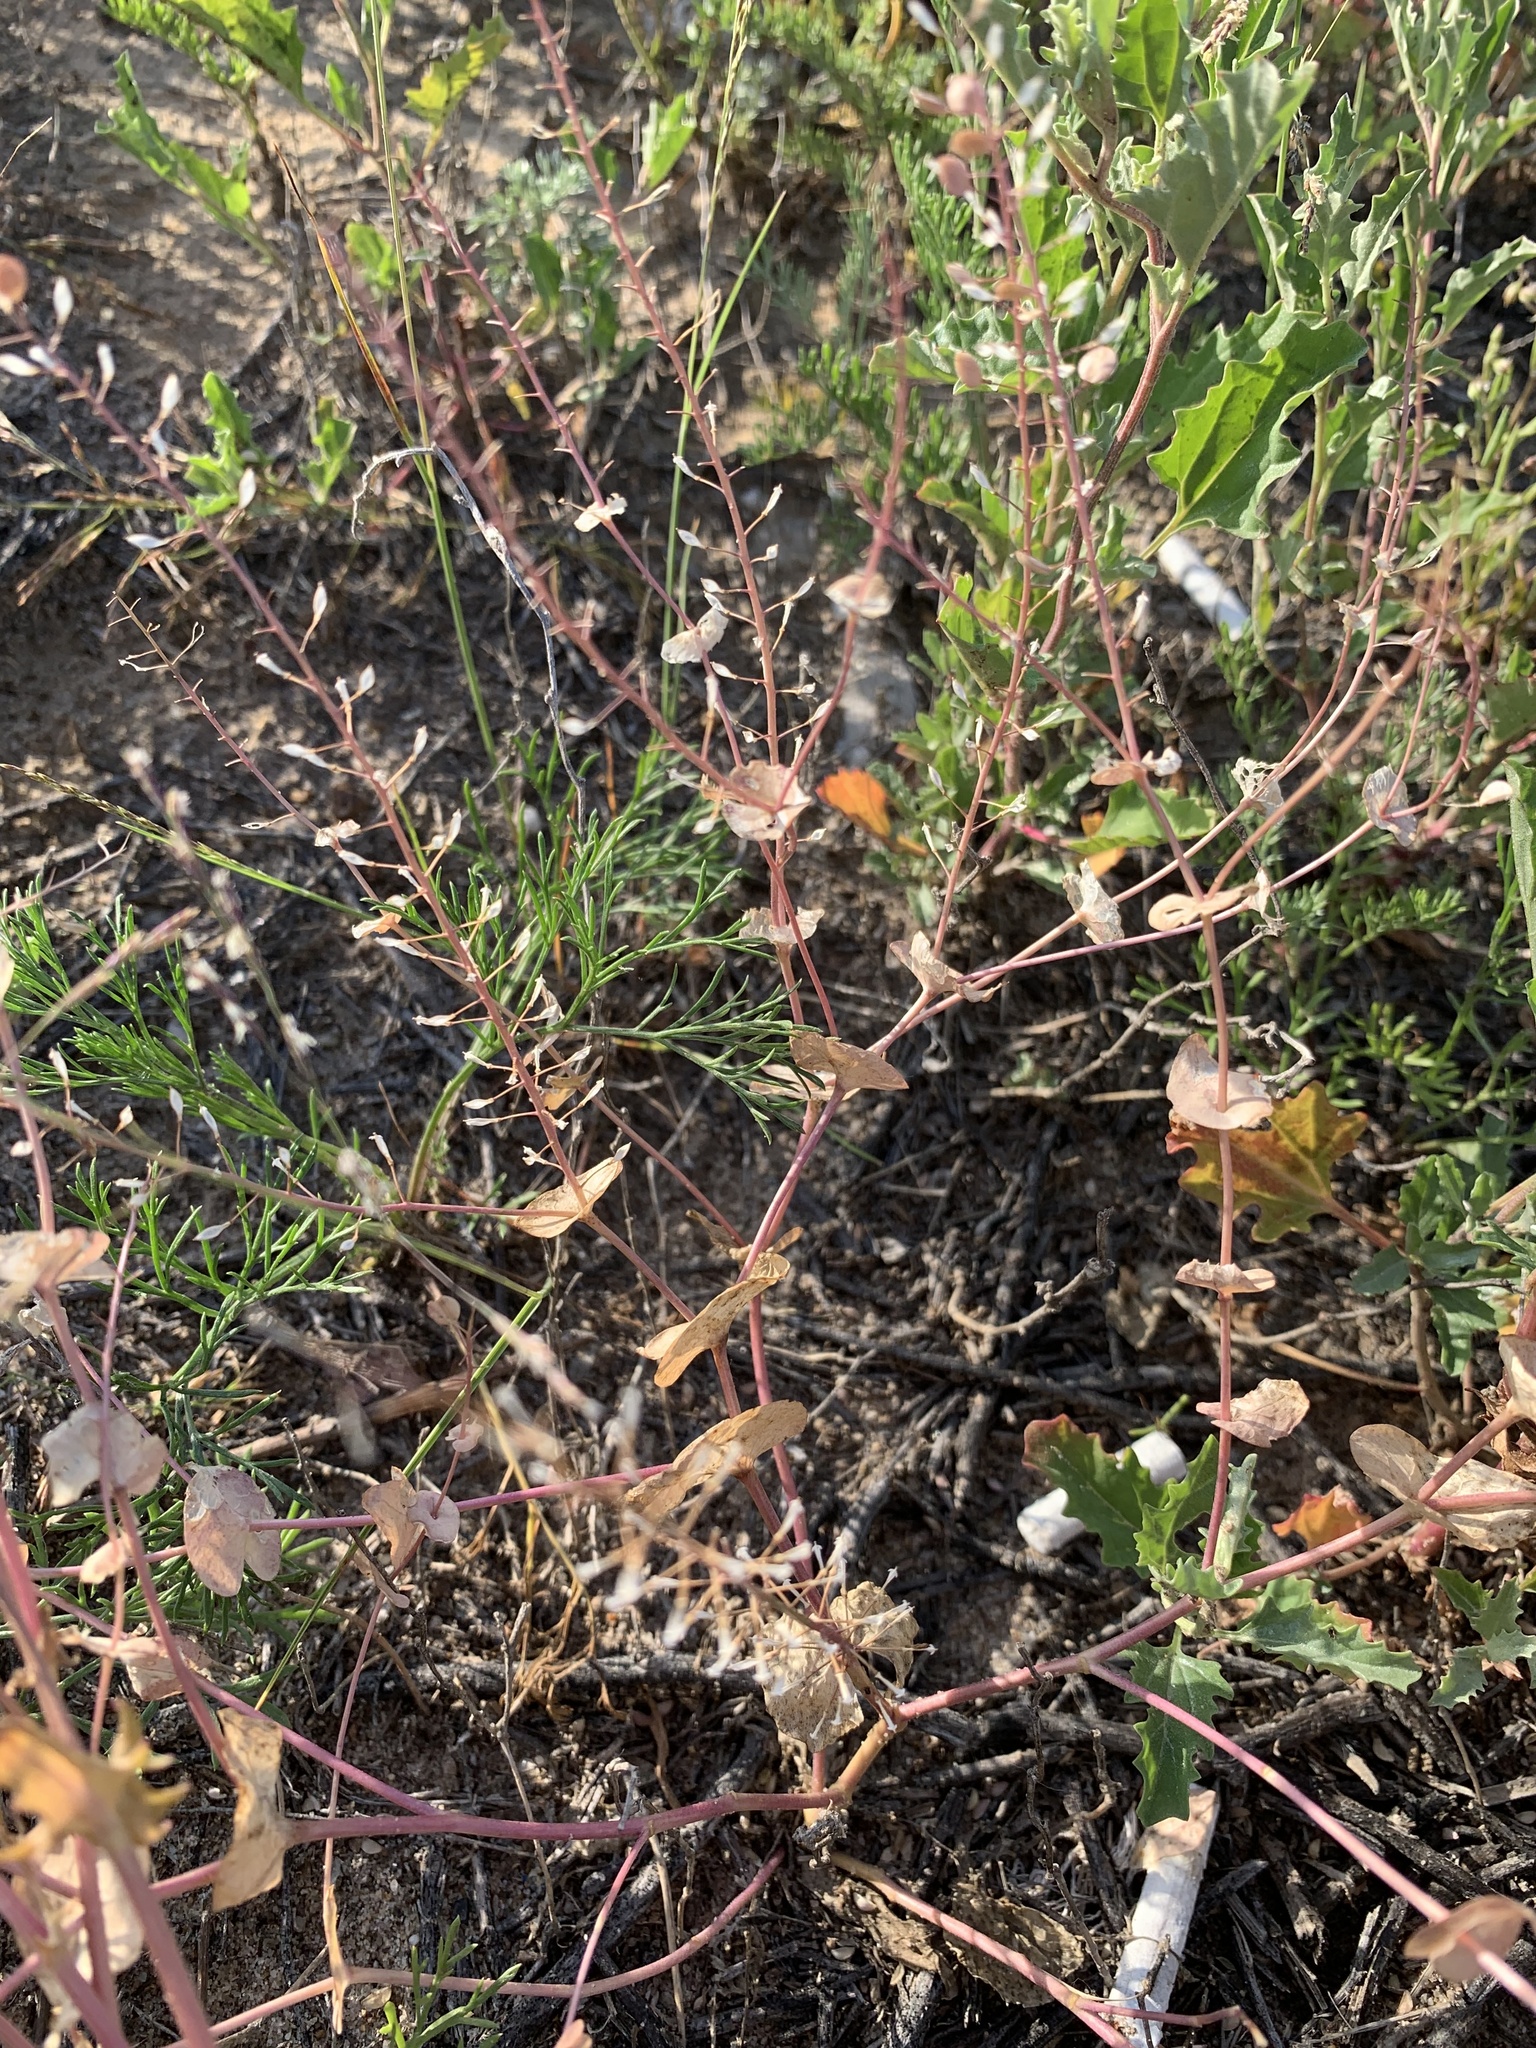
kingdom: Plantae
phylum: Tracheophyta
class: Magnoliopsida
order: Brassicales
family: Brassicaceae
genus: Lepidium
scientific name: Lepidium perfoliatum
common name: Perfoliate pepperwort
